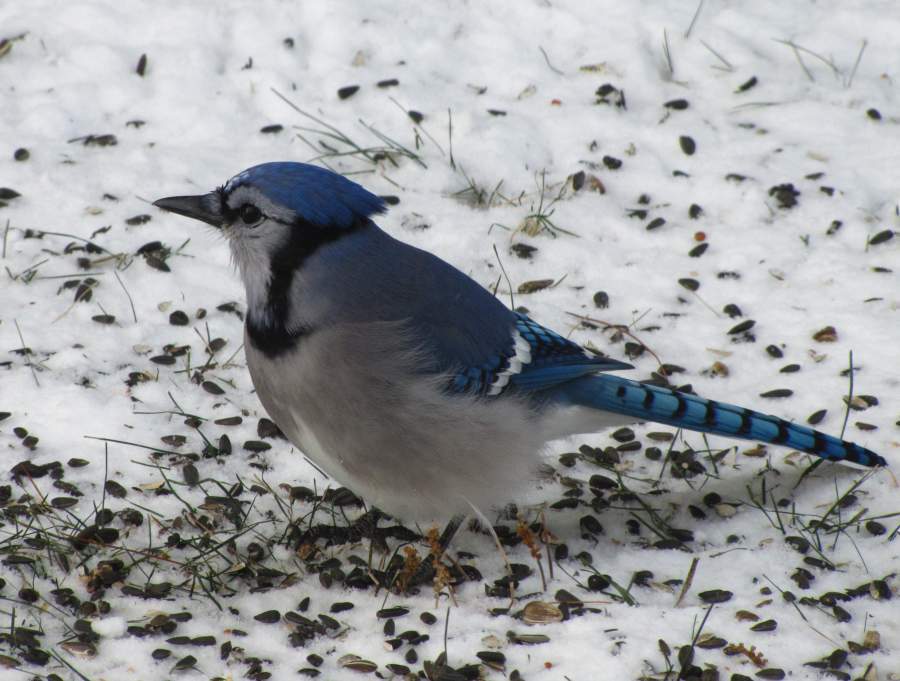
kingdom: Animalia
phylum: Chordata
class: Aves
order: Passeriformes
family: Corvidae
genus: Cyanocitta
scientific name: Cyanocitta cristata
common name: Blue jay
